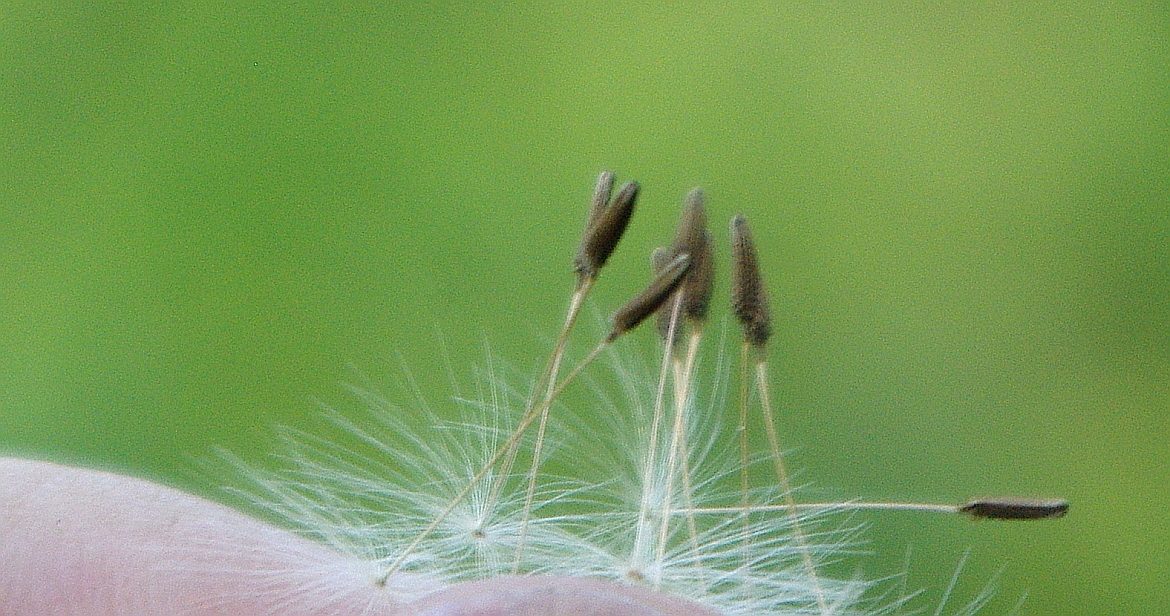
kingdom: Plantae
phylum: Tracheophyta
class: Magnoliopsida
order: Asterales
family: Asteraceae
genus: Taraxacum
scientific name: Taraxacum officinale
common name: Common dandelion
